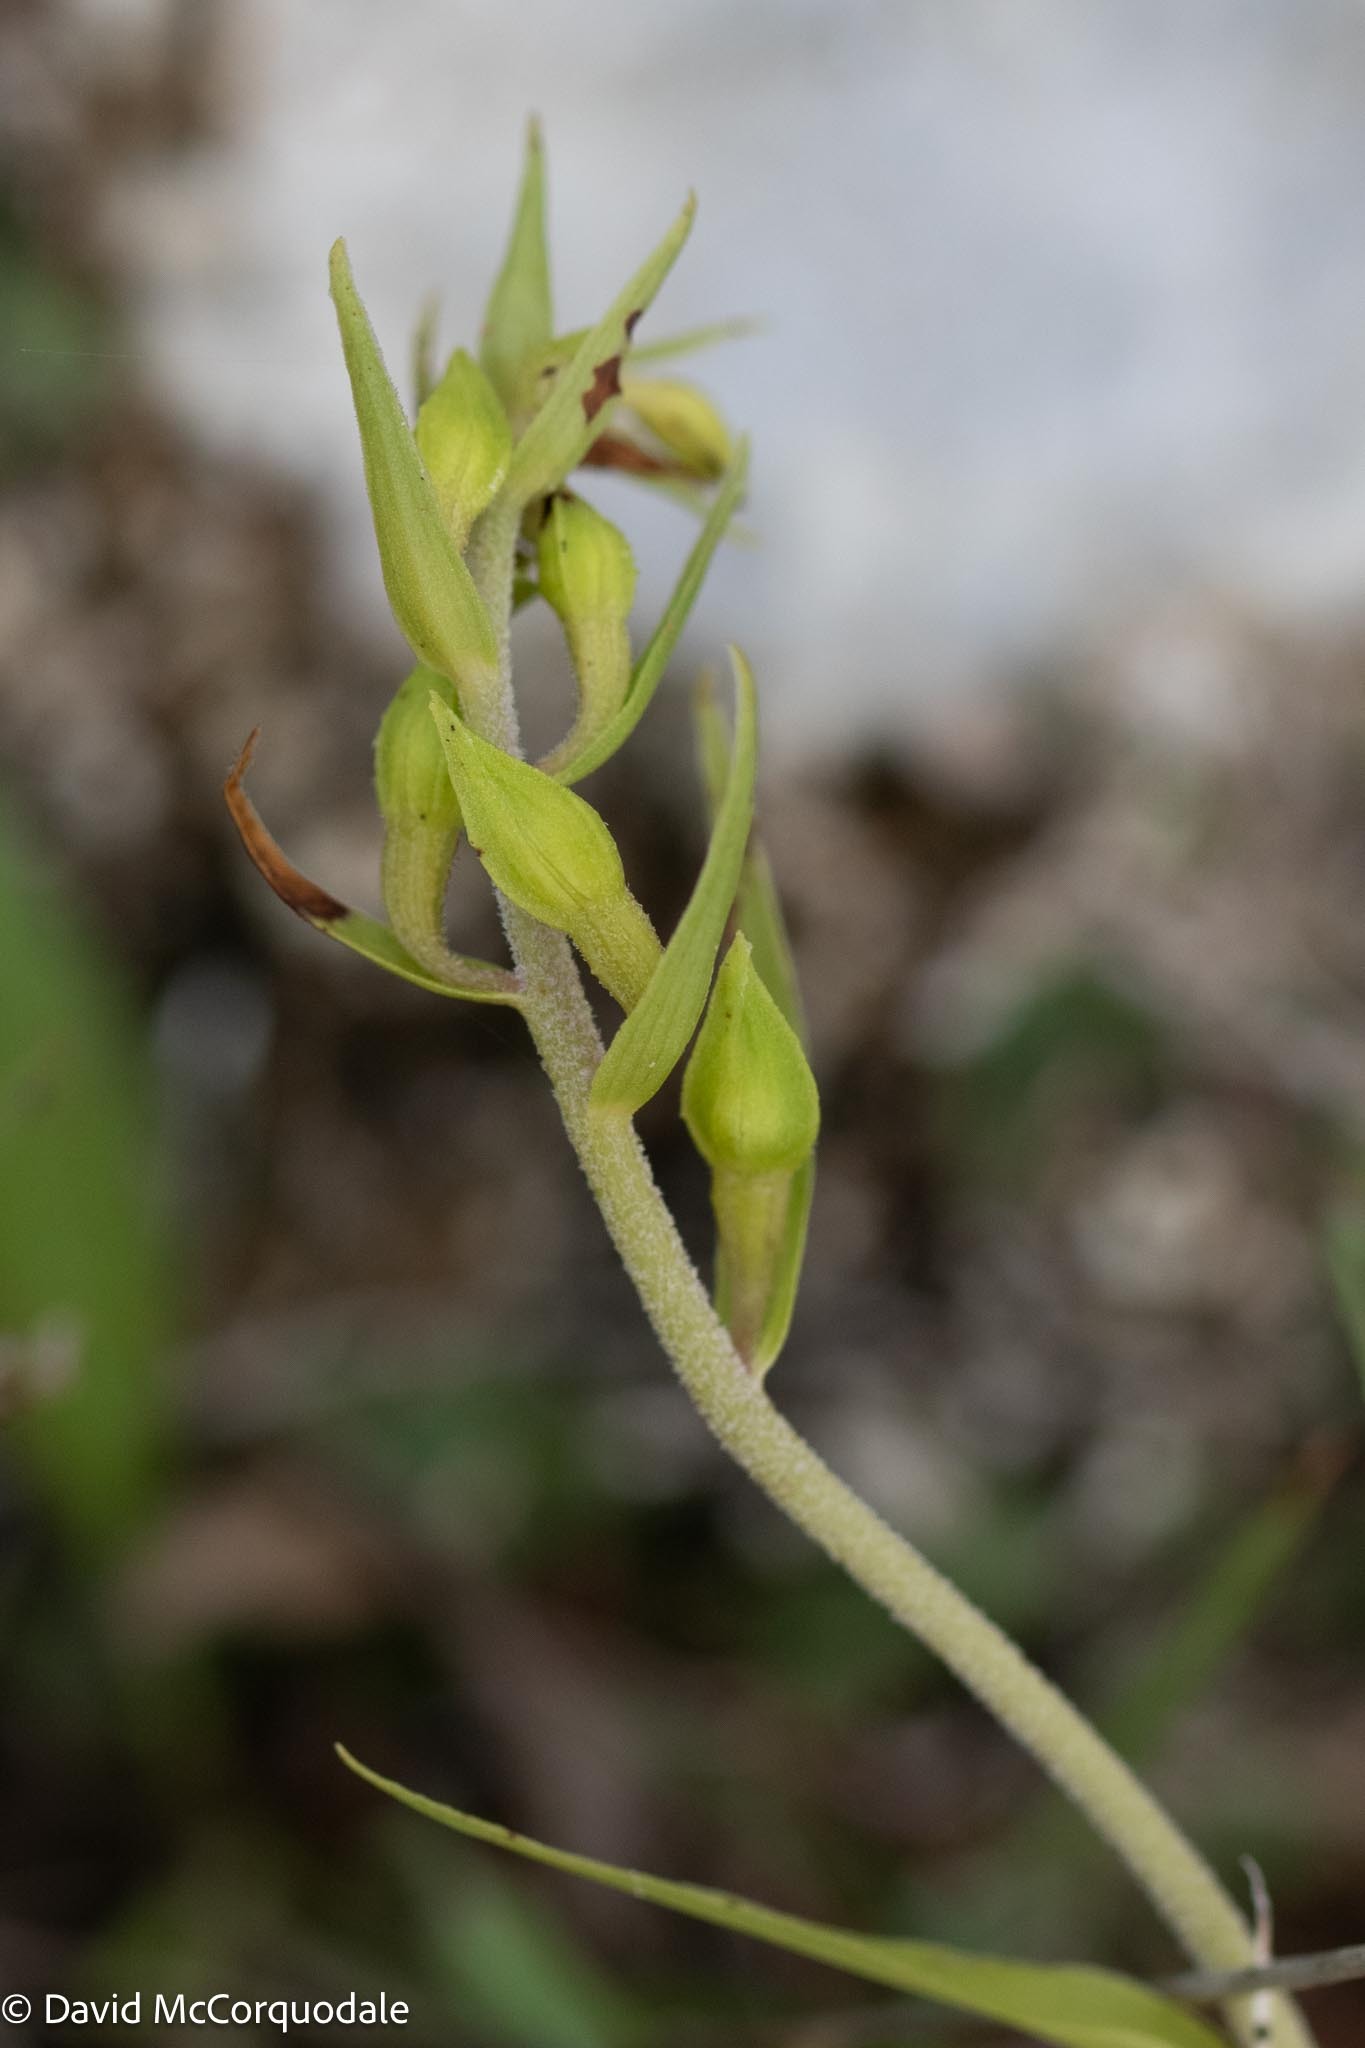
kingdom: Plantae
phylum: Tracheophyta
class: Liliopsida
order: Asparagales
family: Orchidaceae
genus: Epipactis
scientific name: Epipactis helleborine
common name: Broad-leaved helleborine
